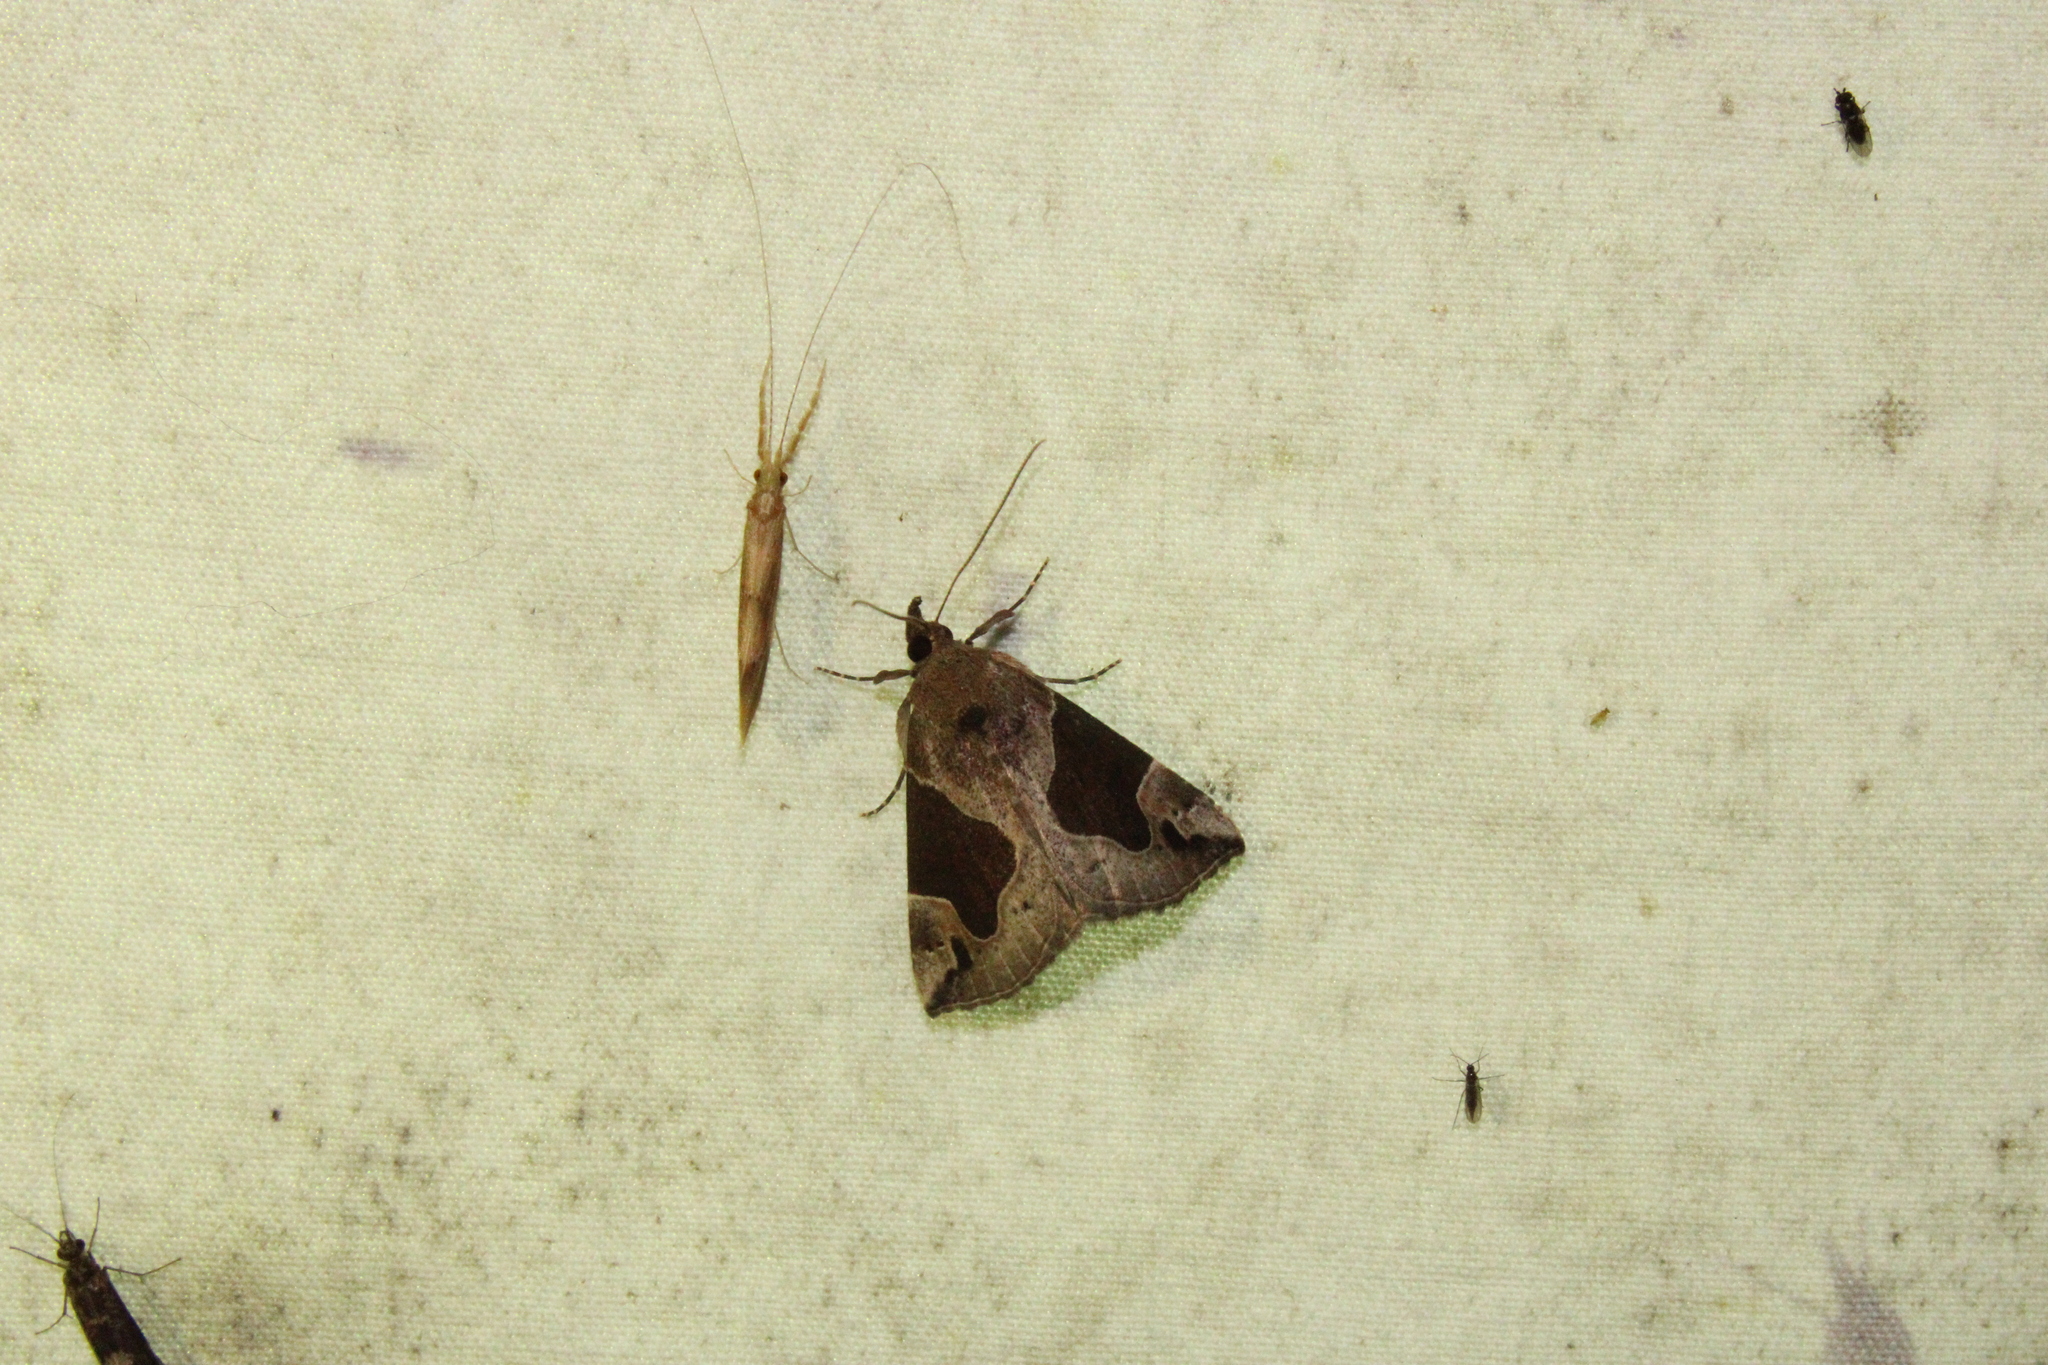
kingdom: Animalia
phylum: Arthropoda
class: Insecta
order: Lepidoptera
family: Erebidae
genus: Hypena
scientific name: Hypena manalis
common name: Flowing-line bomolocha moth
